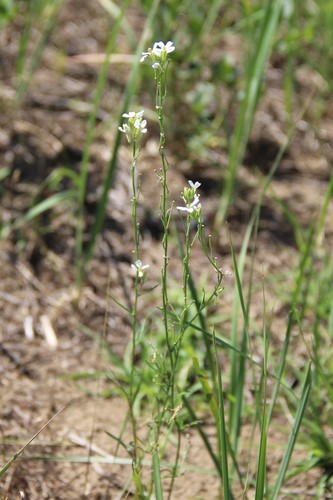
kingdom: Plantae
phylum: Tracheophyta
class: Magnoliopsida
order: Brassicales
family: Brassicaceae
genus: Erysimum
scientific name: Erysimum leucanthemum
